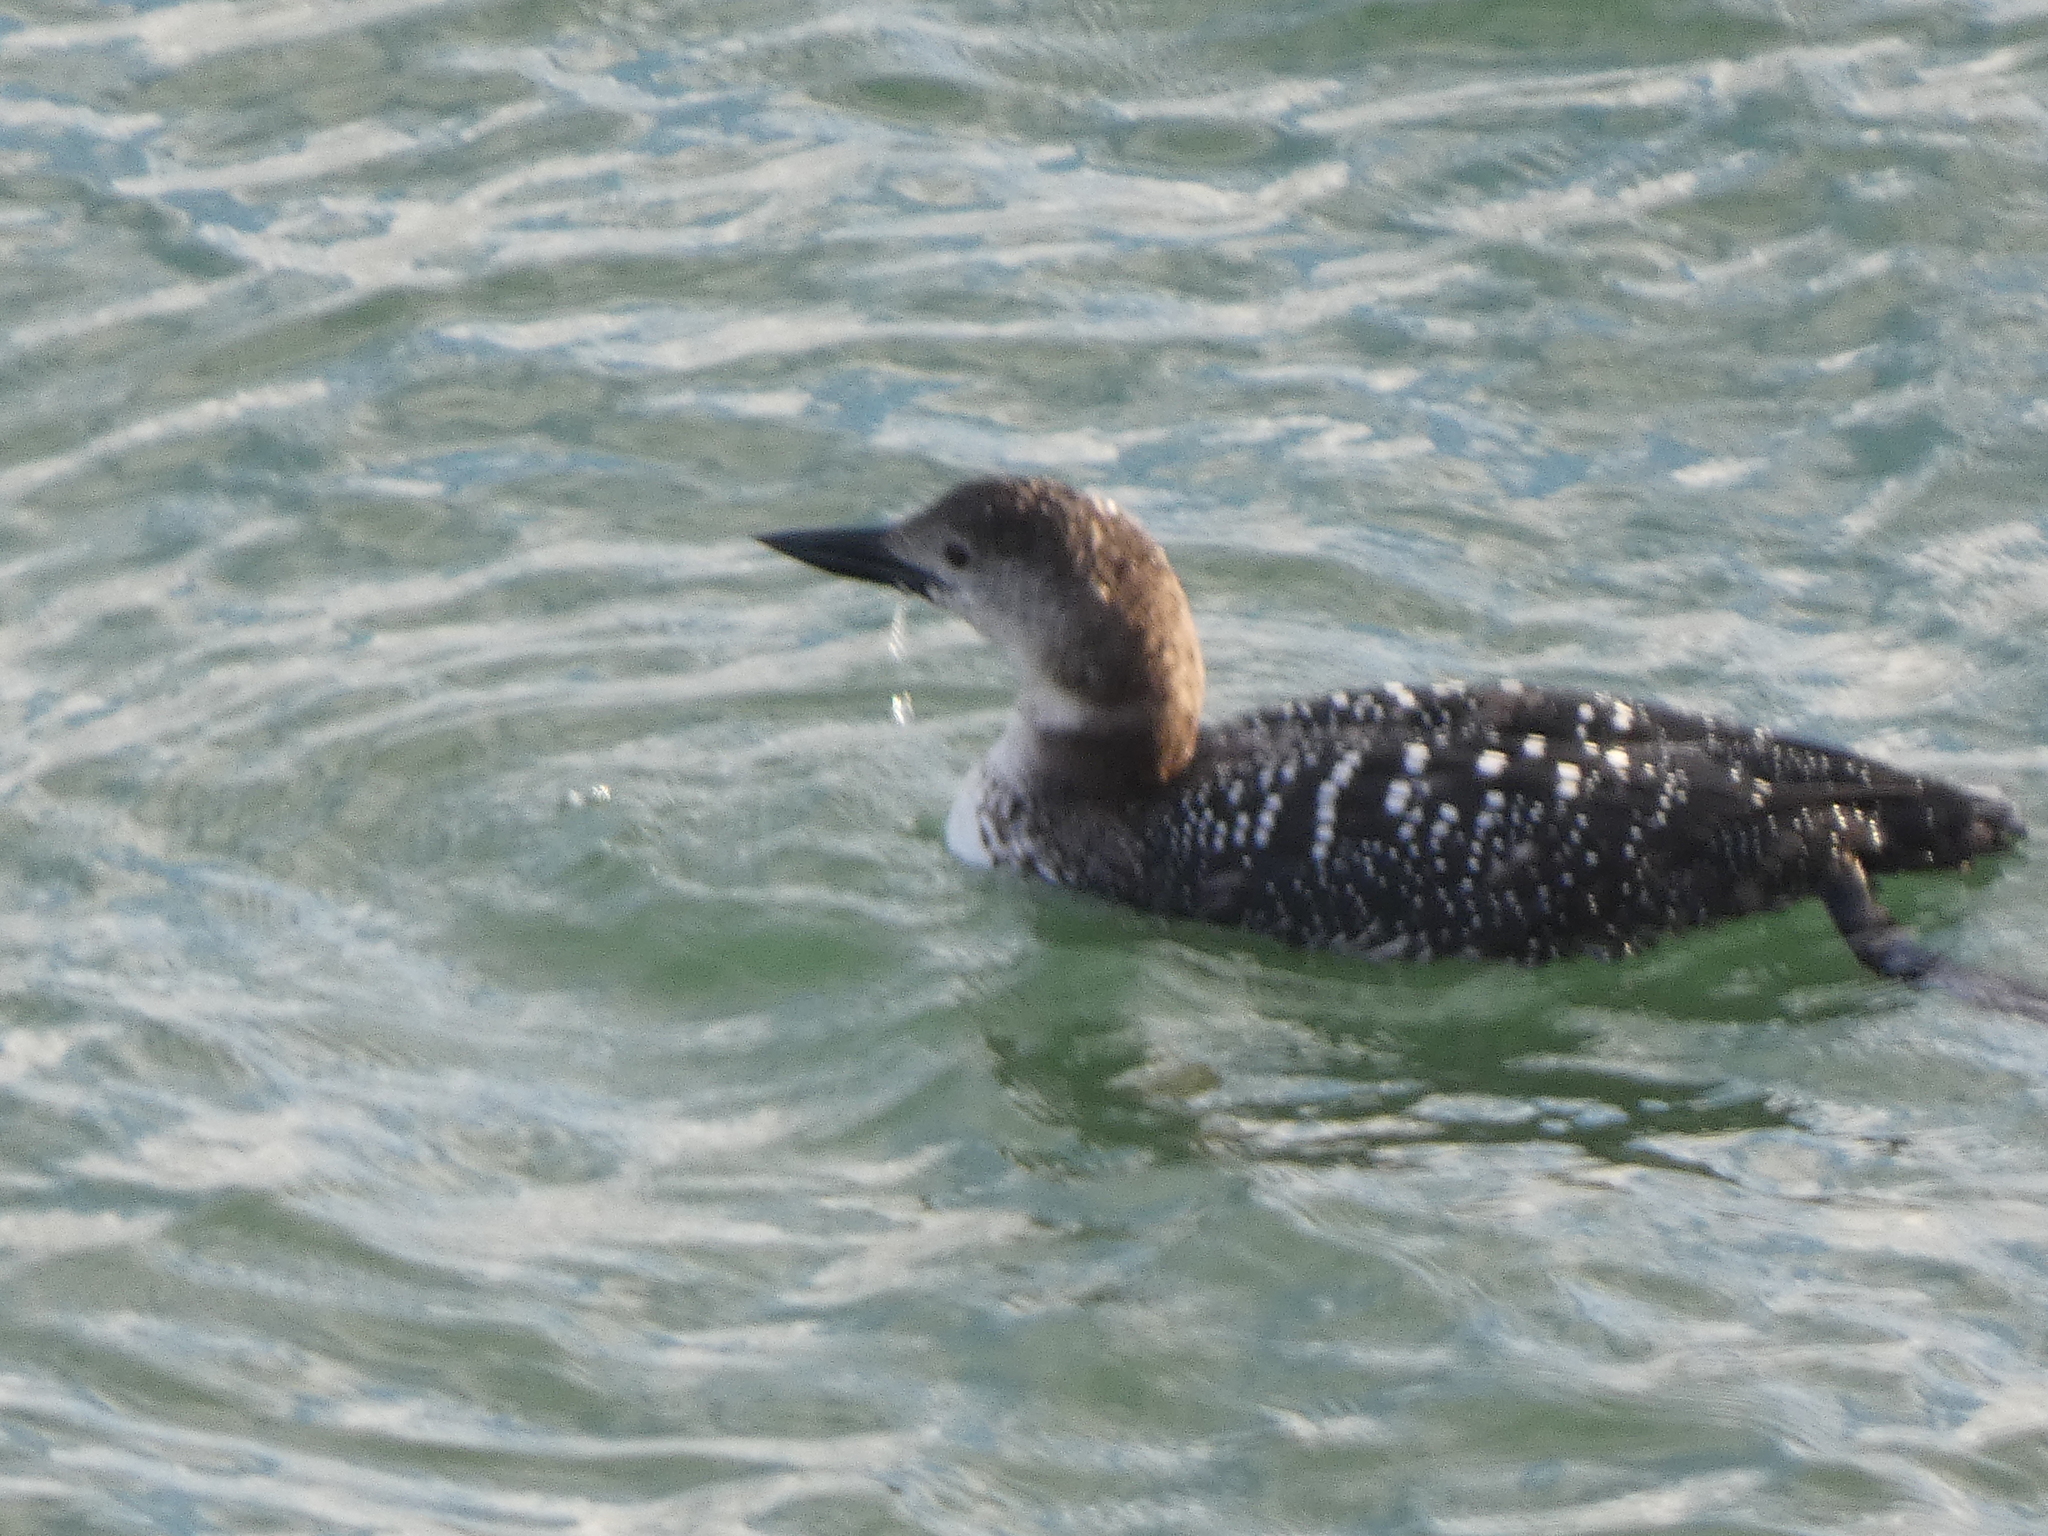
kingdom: Animalia
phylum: Chordata
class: Aves
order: Gaviiformes
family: Gaviidae
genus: Gavia
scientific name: Gavia immer
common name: Common loon
